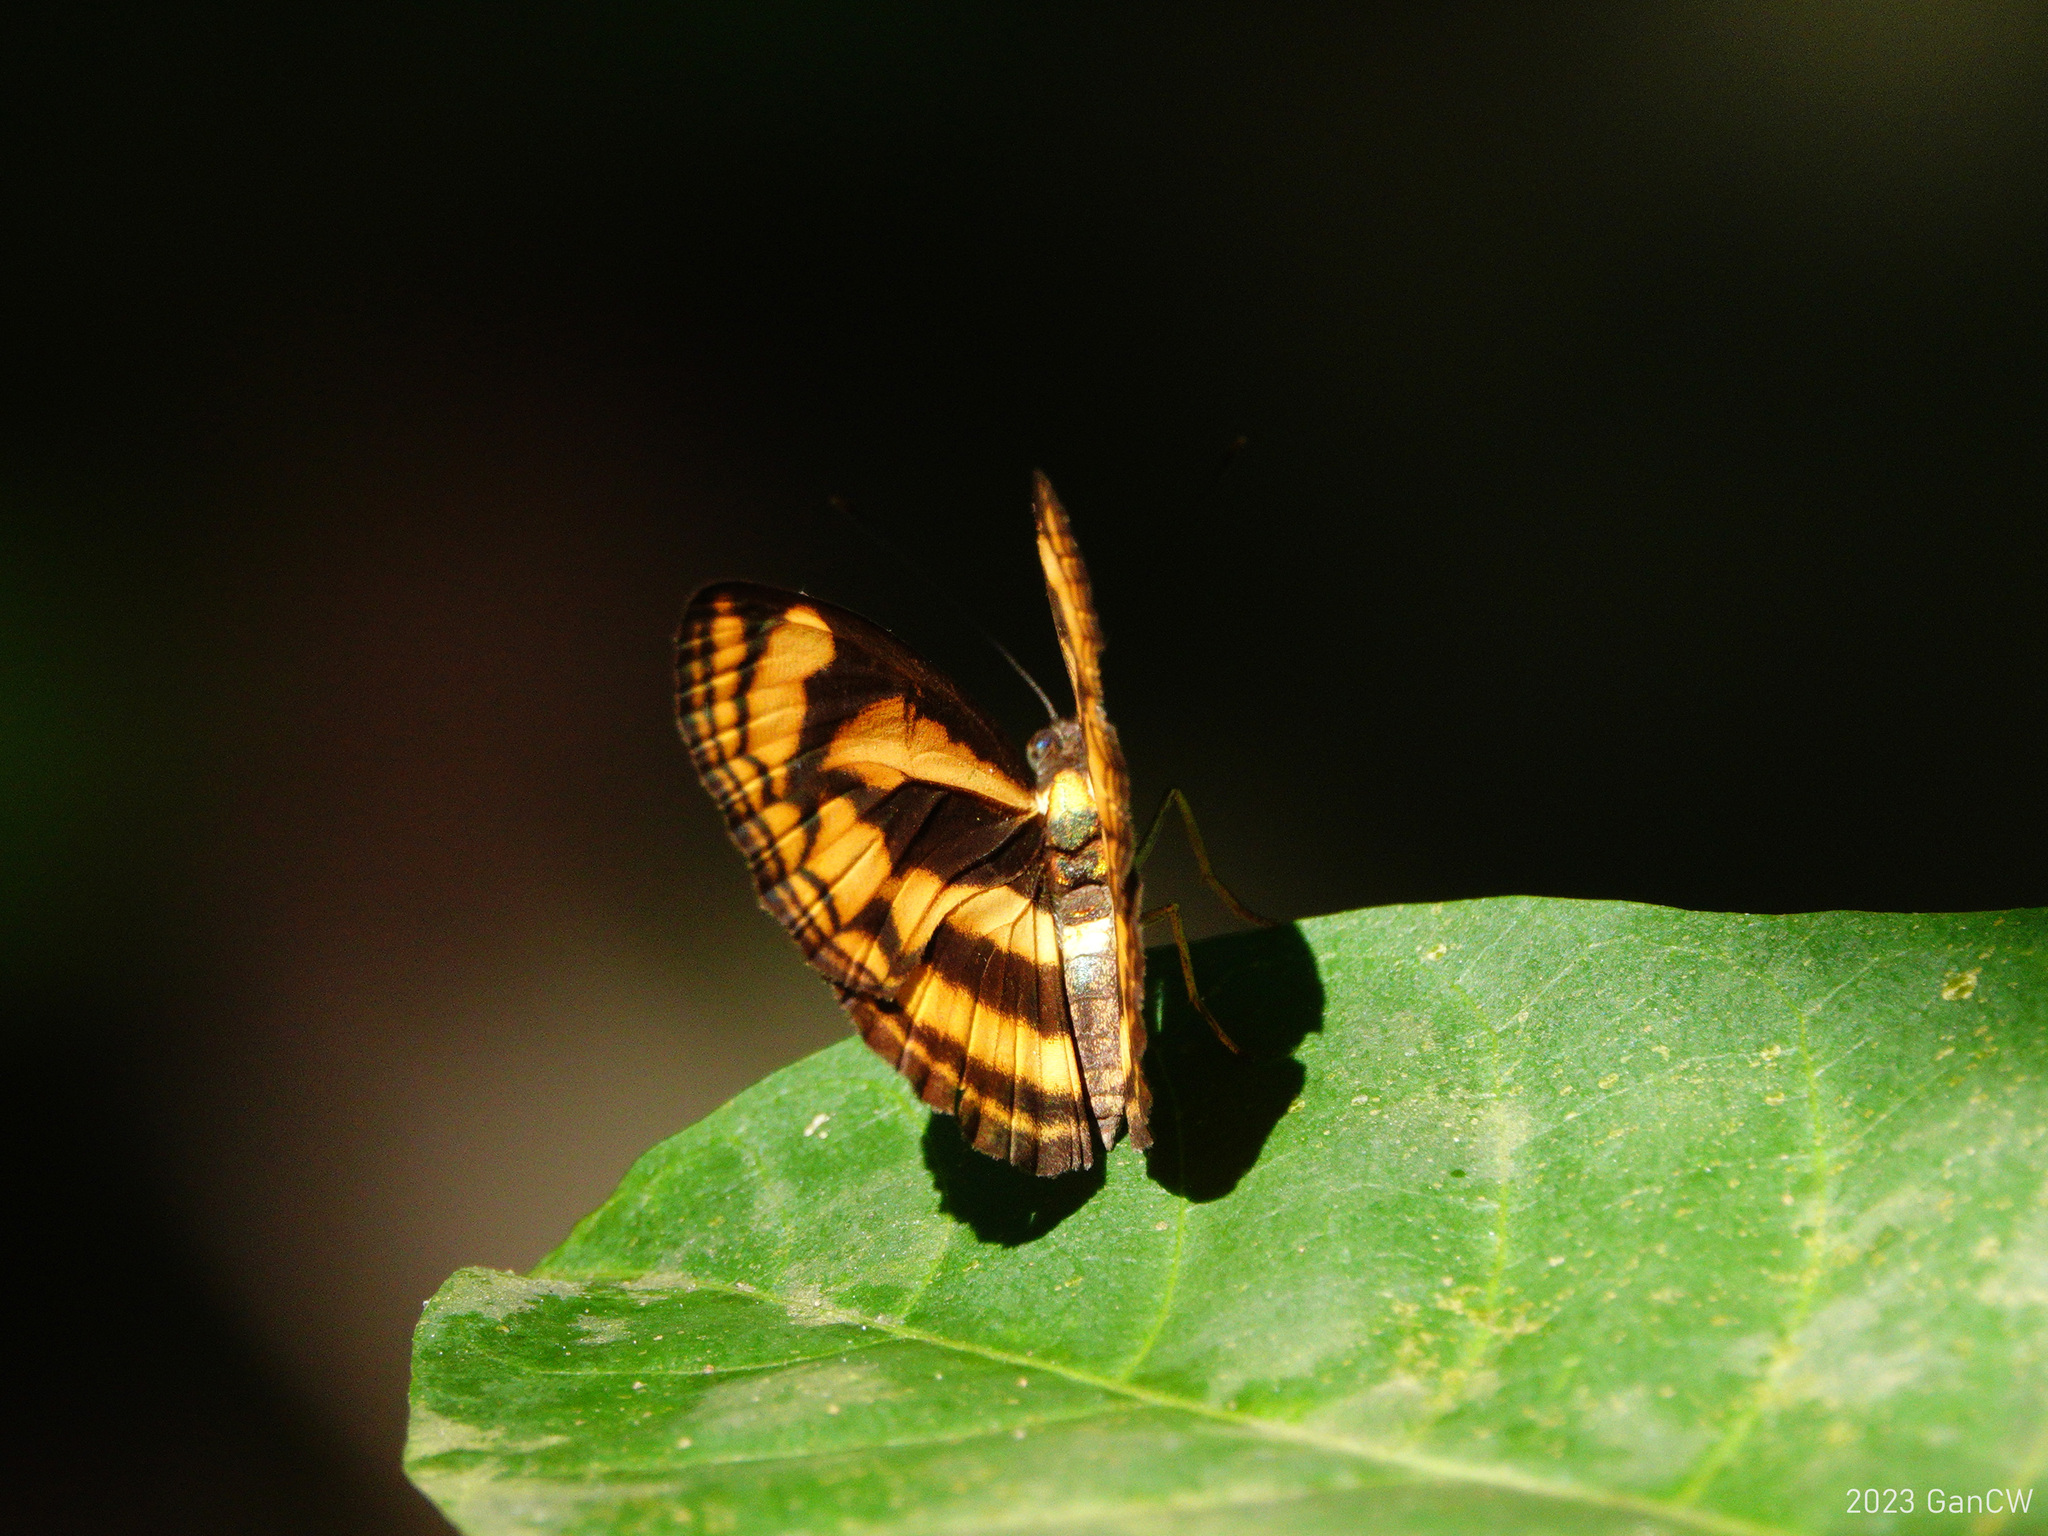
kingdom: Animalia
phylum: Arthropoda
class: Insecta
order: Lepidoptera
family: Nymphalidae
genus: Lasippa
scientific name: Lasippa tiga
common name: Malayan lascar
